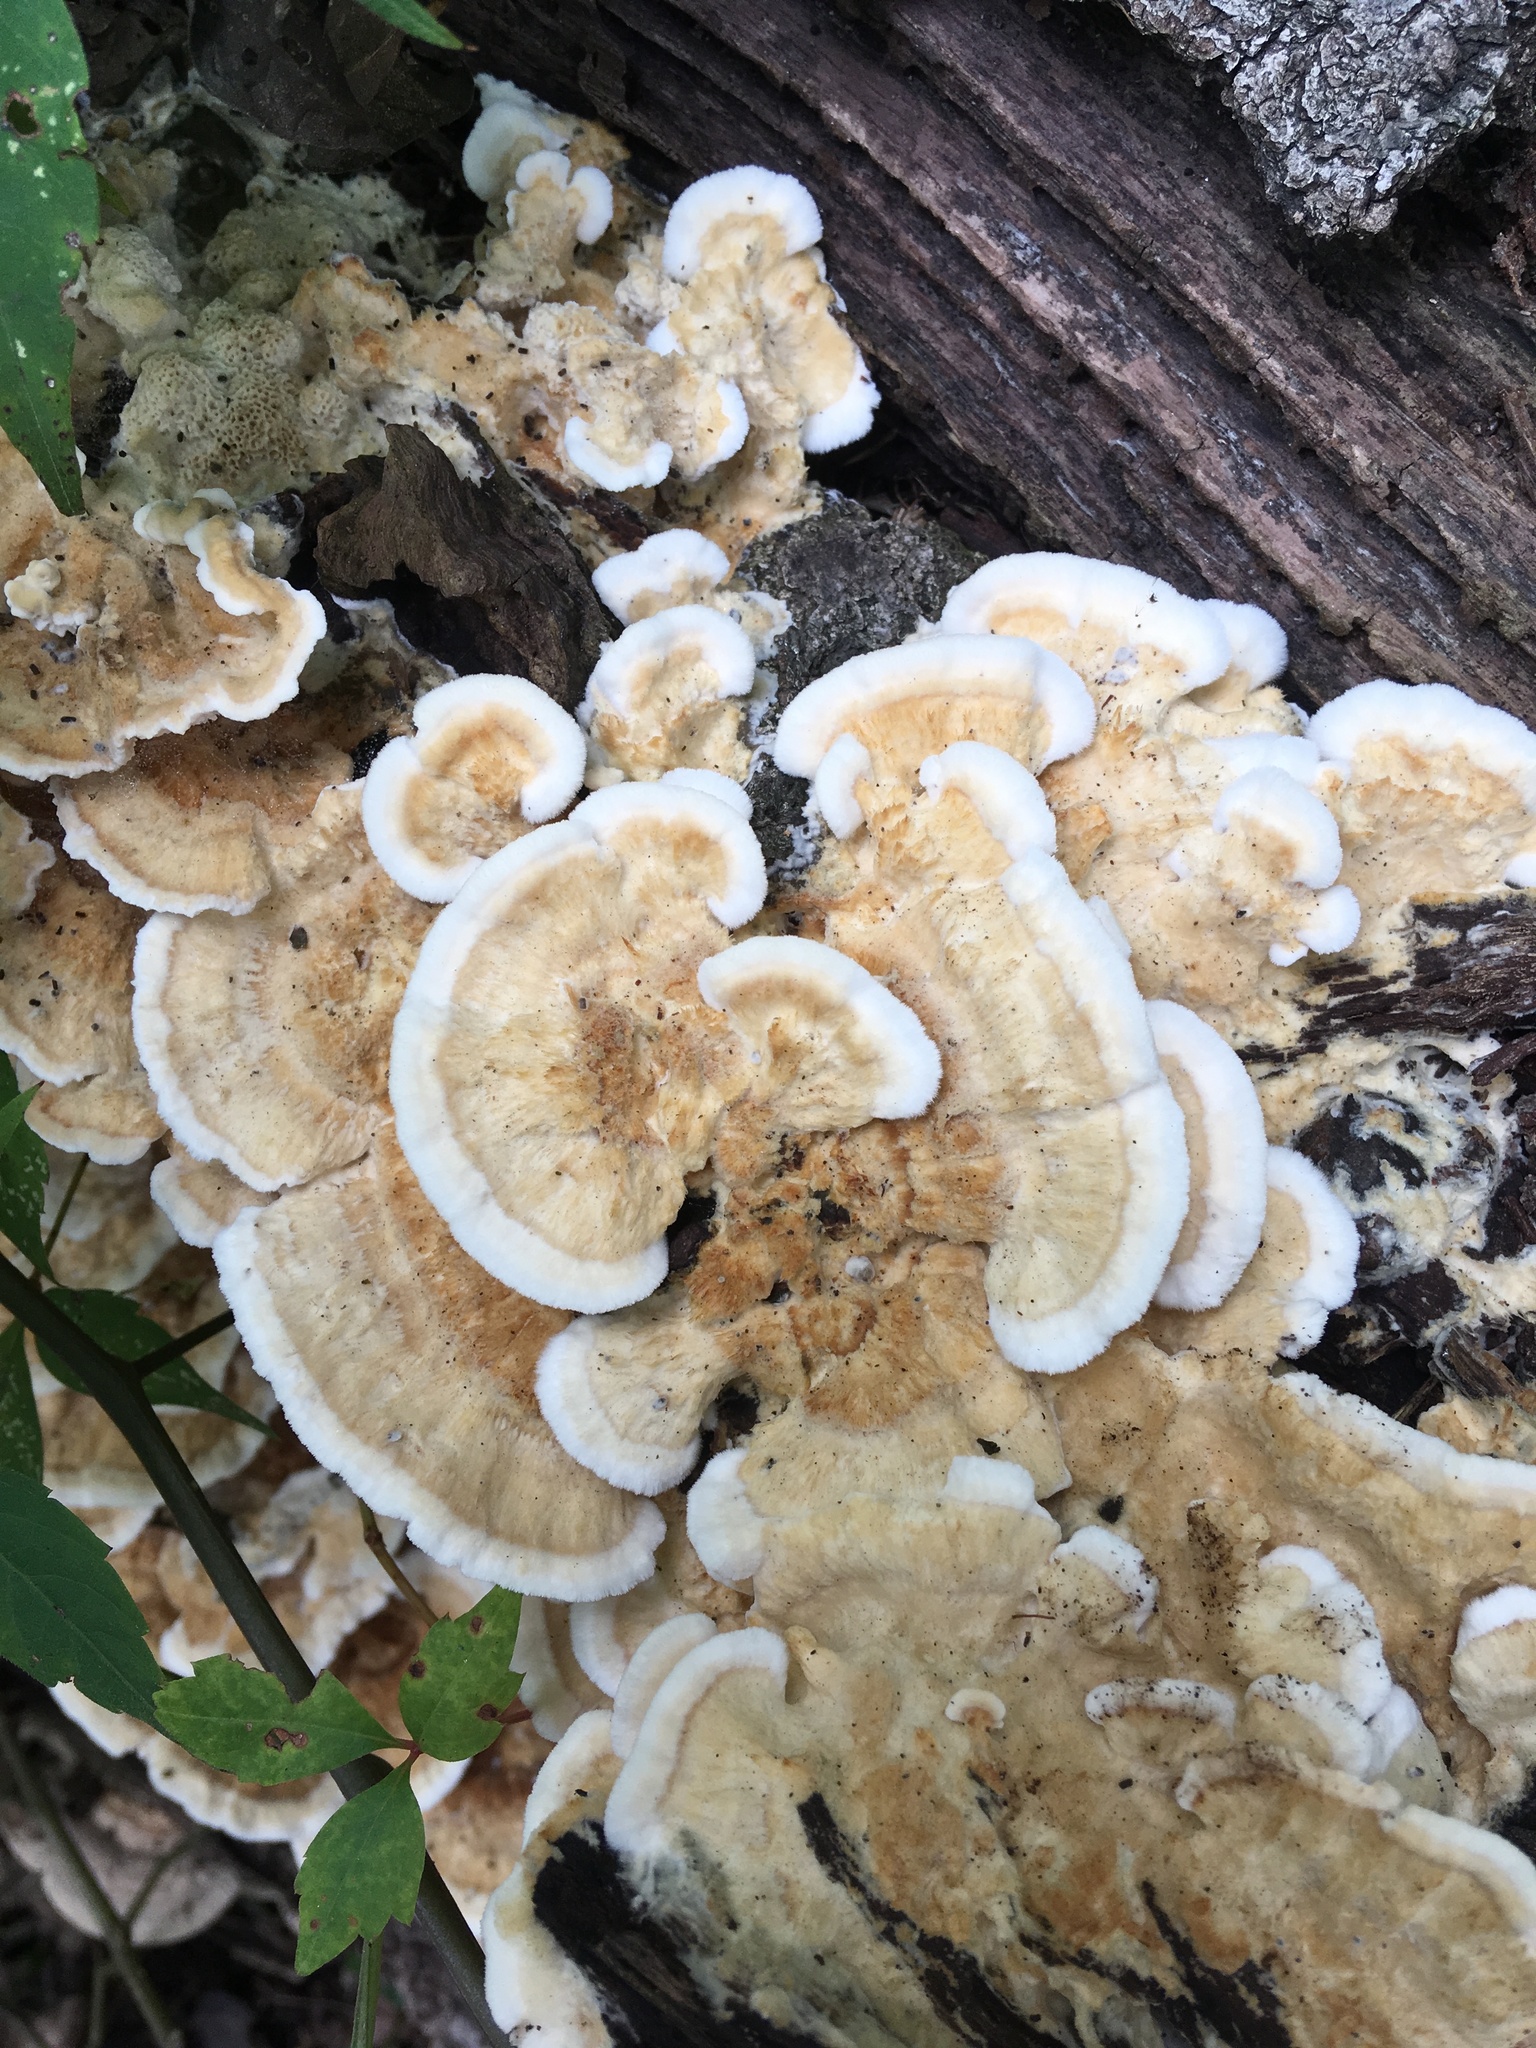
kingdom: Fungi
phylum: Basidiomycota
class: Agaricomycetes
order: Polyporales
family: Polyporaceae
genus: Trametes
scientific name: Trametes ochracea
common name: Ochre bracket
